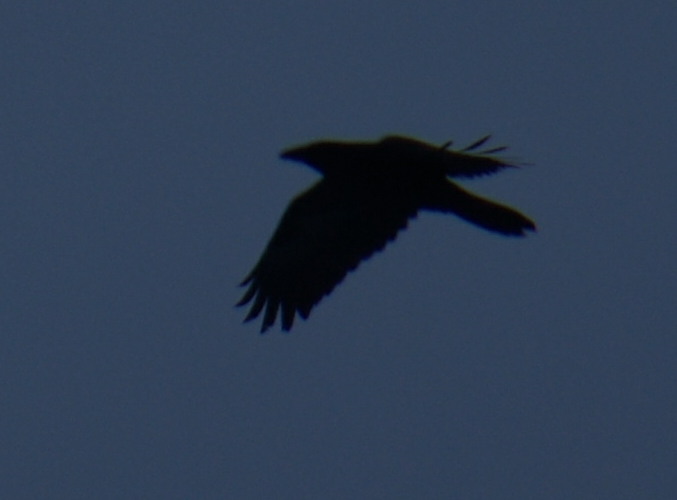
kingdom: Animalia
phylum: Chordata
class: Aves
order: Passeriformes
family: Corvidae
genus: Corvus
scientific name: Corvus corax
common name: Common raven
